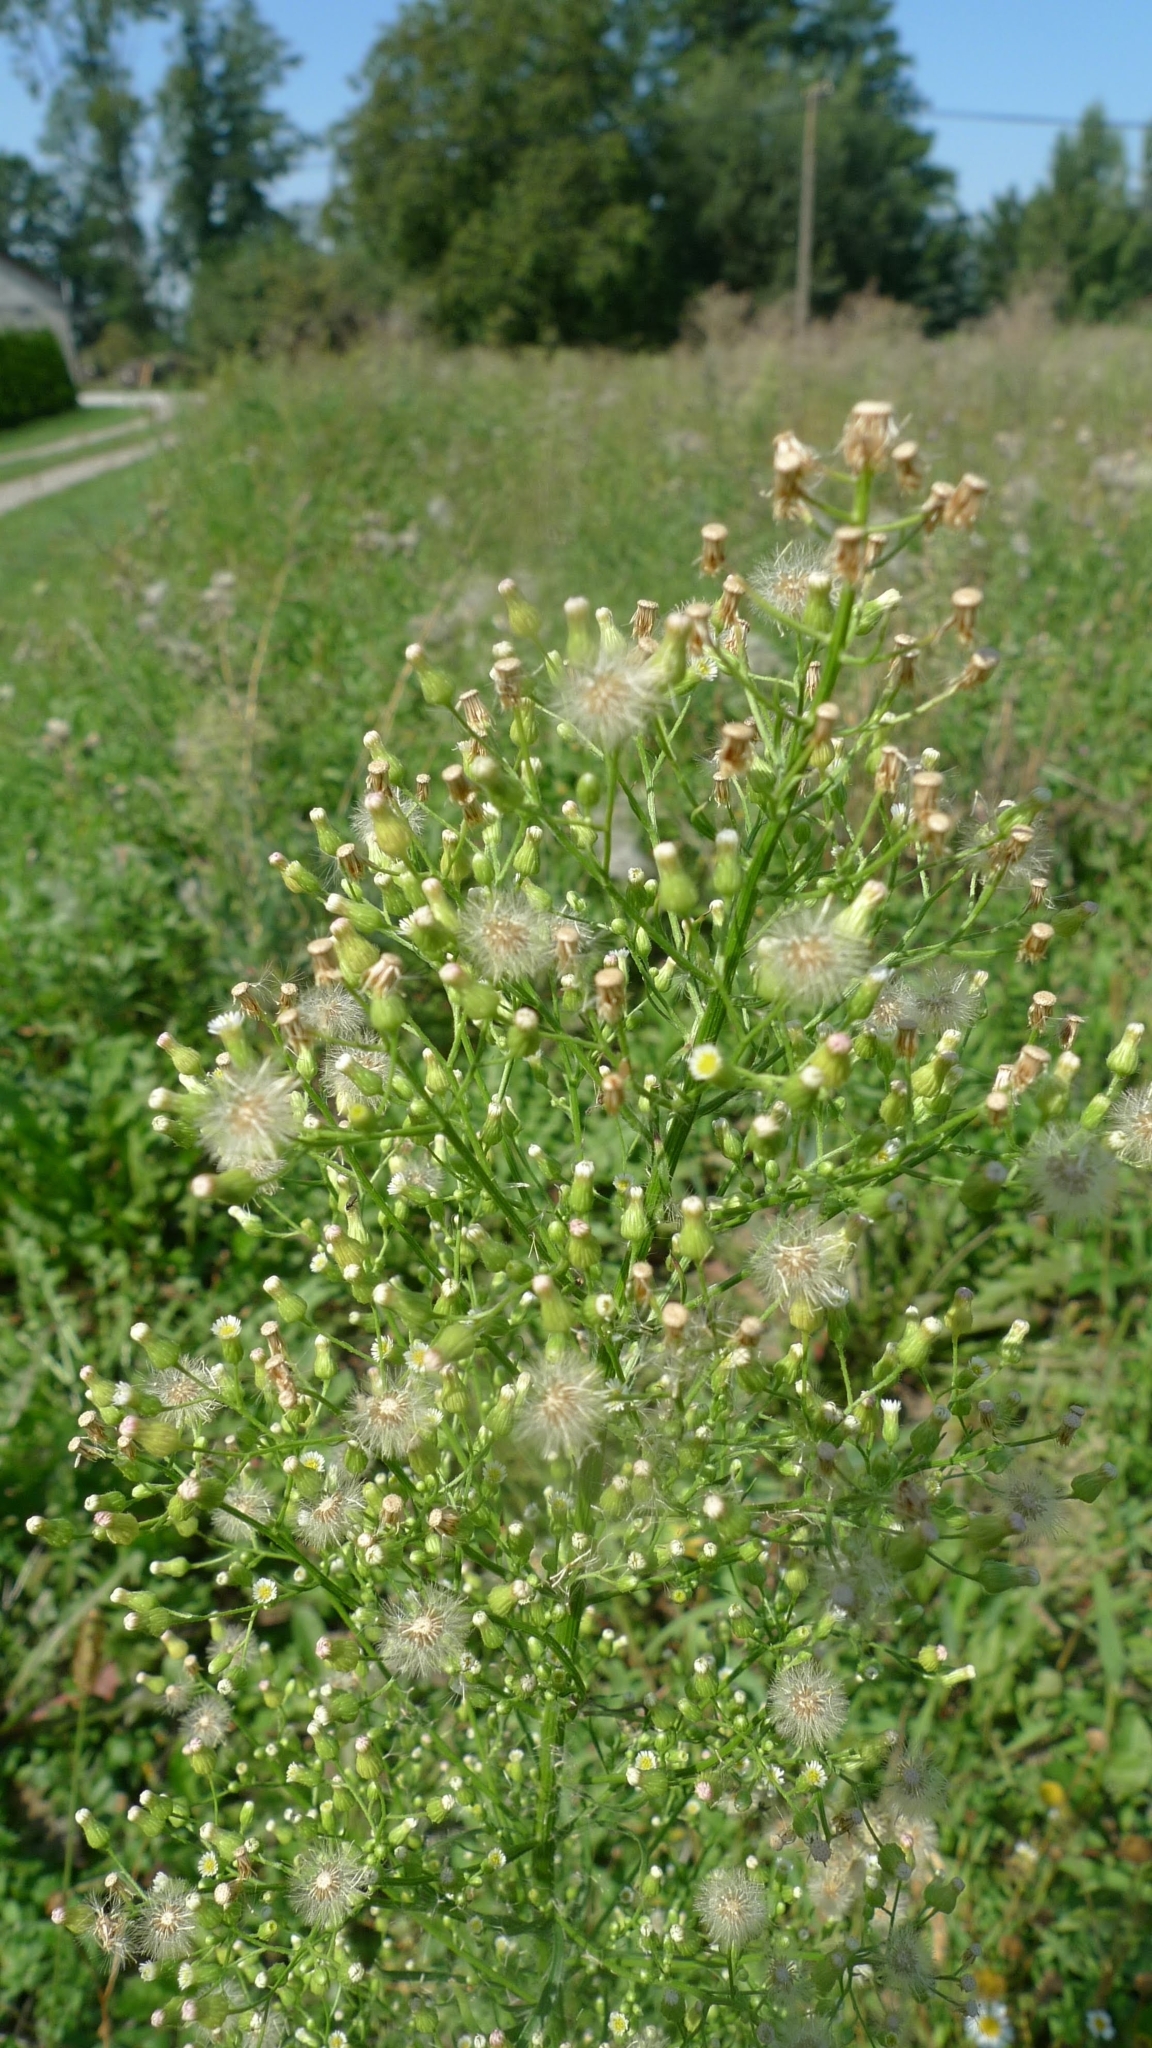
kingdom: Plantae
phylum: Tracheophyta
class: Magnoliopsida
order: Asterales
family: Asteraceae
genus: Erigeron
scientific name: Erigeron canadensis
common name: Canadian fleabane
